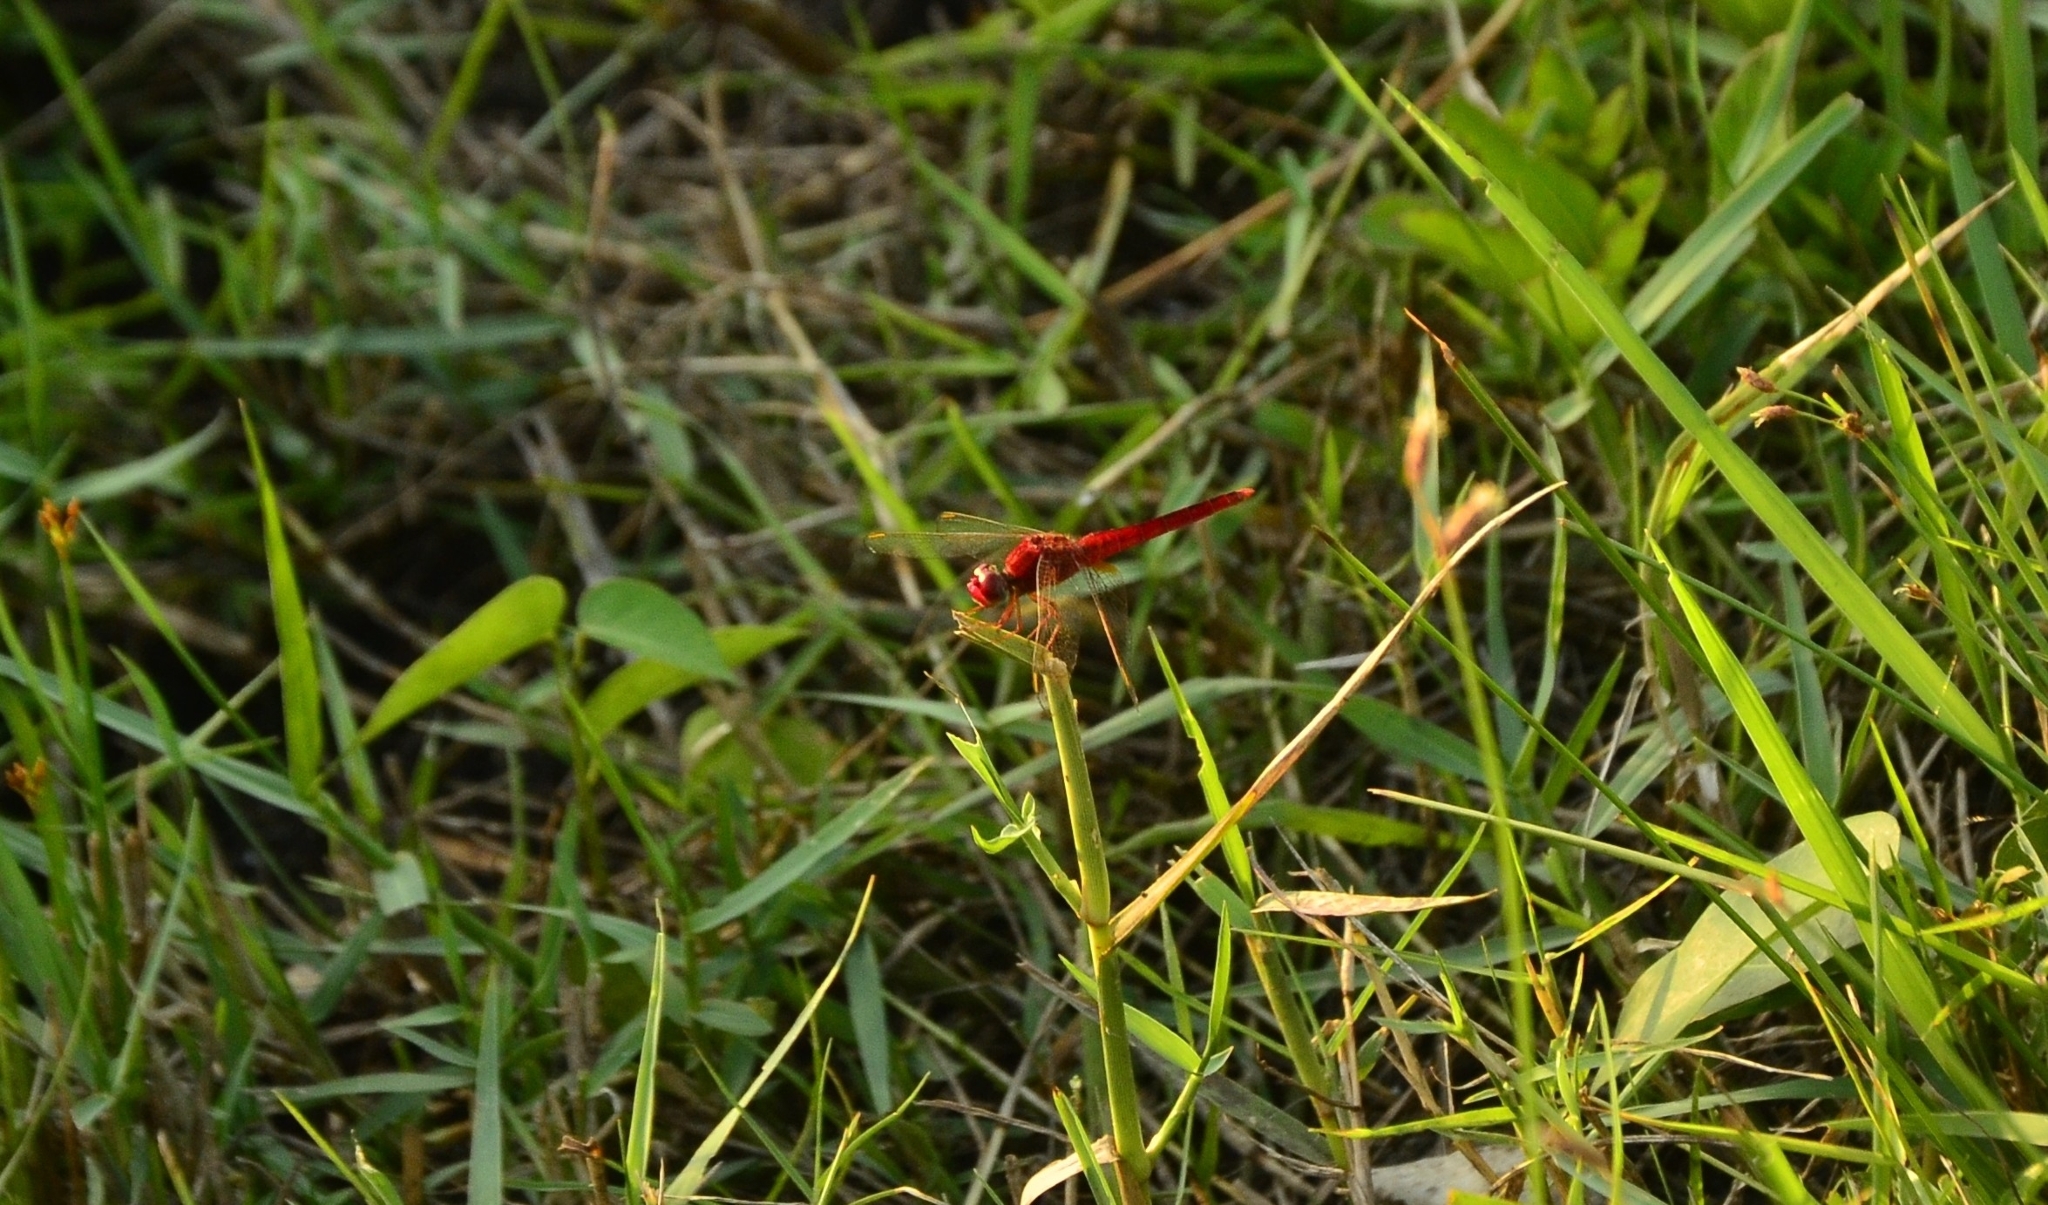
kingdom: Animalia
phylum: Arthropoda
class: Insecta
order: Odonata
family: Libellulidae
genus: Crocothemis
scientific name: Crocothemis servilia
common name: Scarlet skimmer
